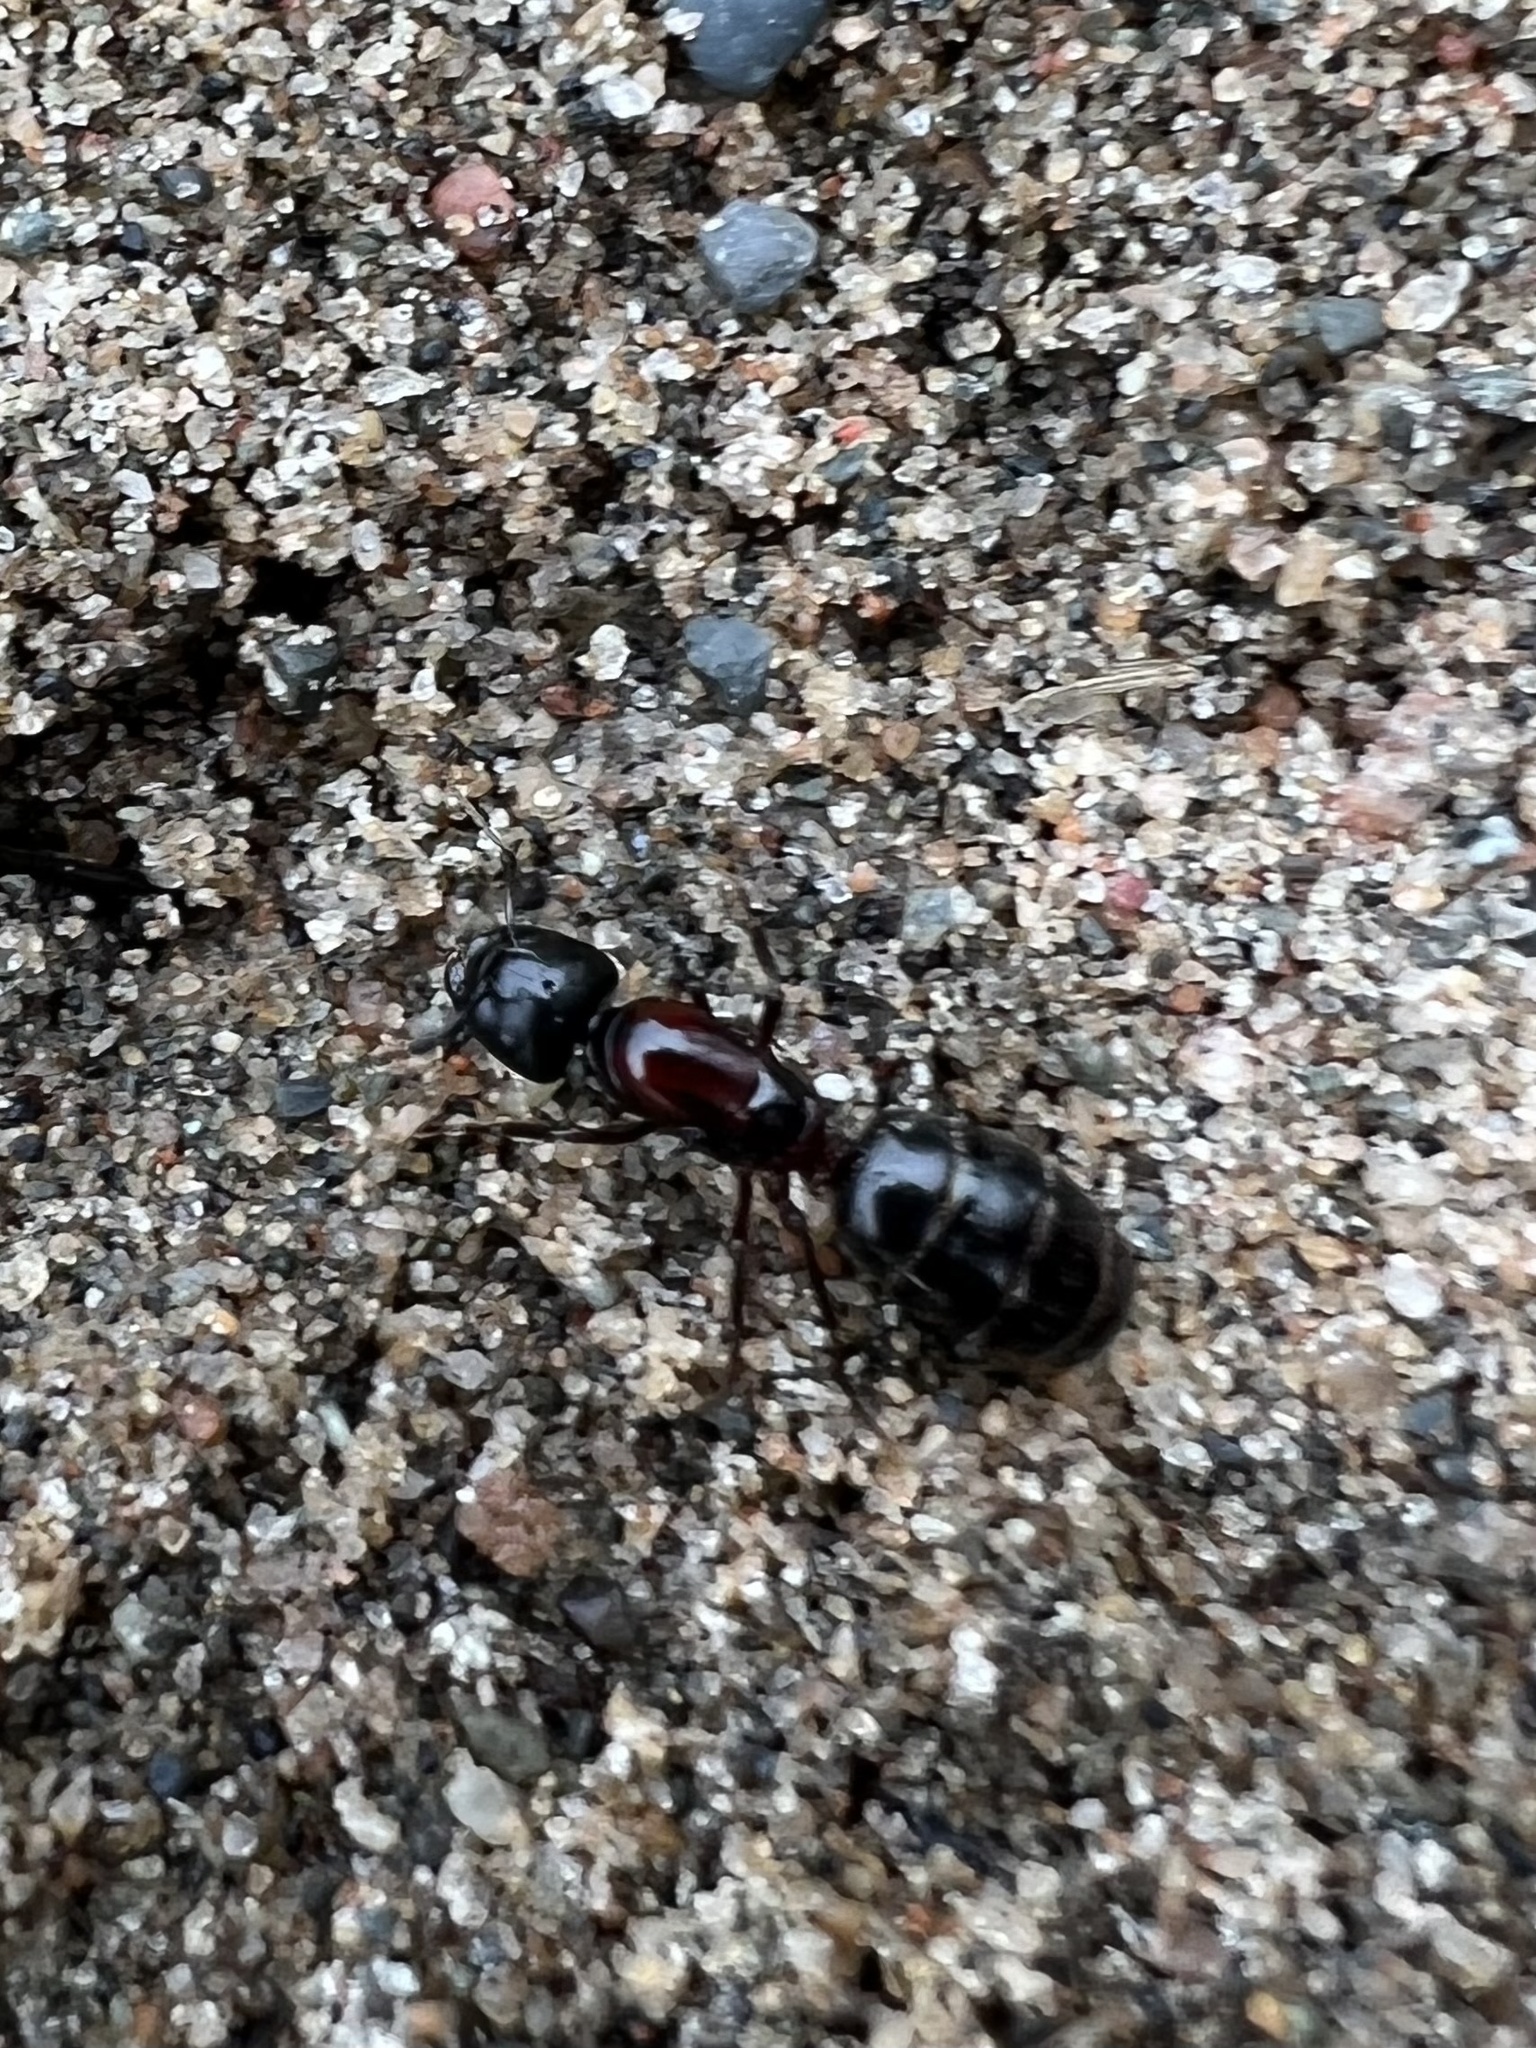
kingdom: Animalia
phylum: Arthropoda
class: Insecta
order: Hymenoptera
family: Formicidae
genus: Camponotus
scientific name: Camponotus novaeboracensis
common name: New york carpenter ant
